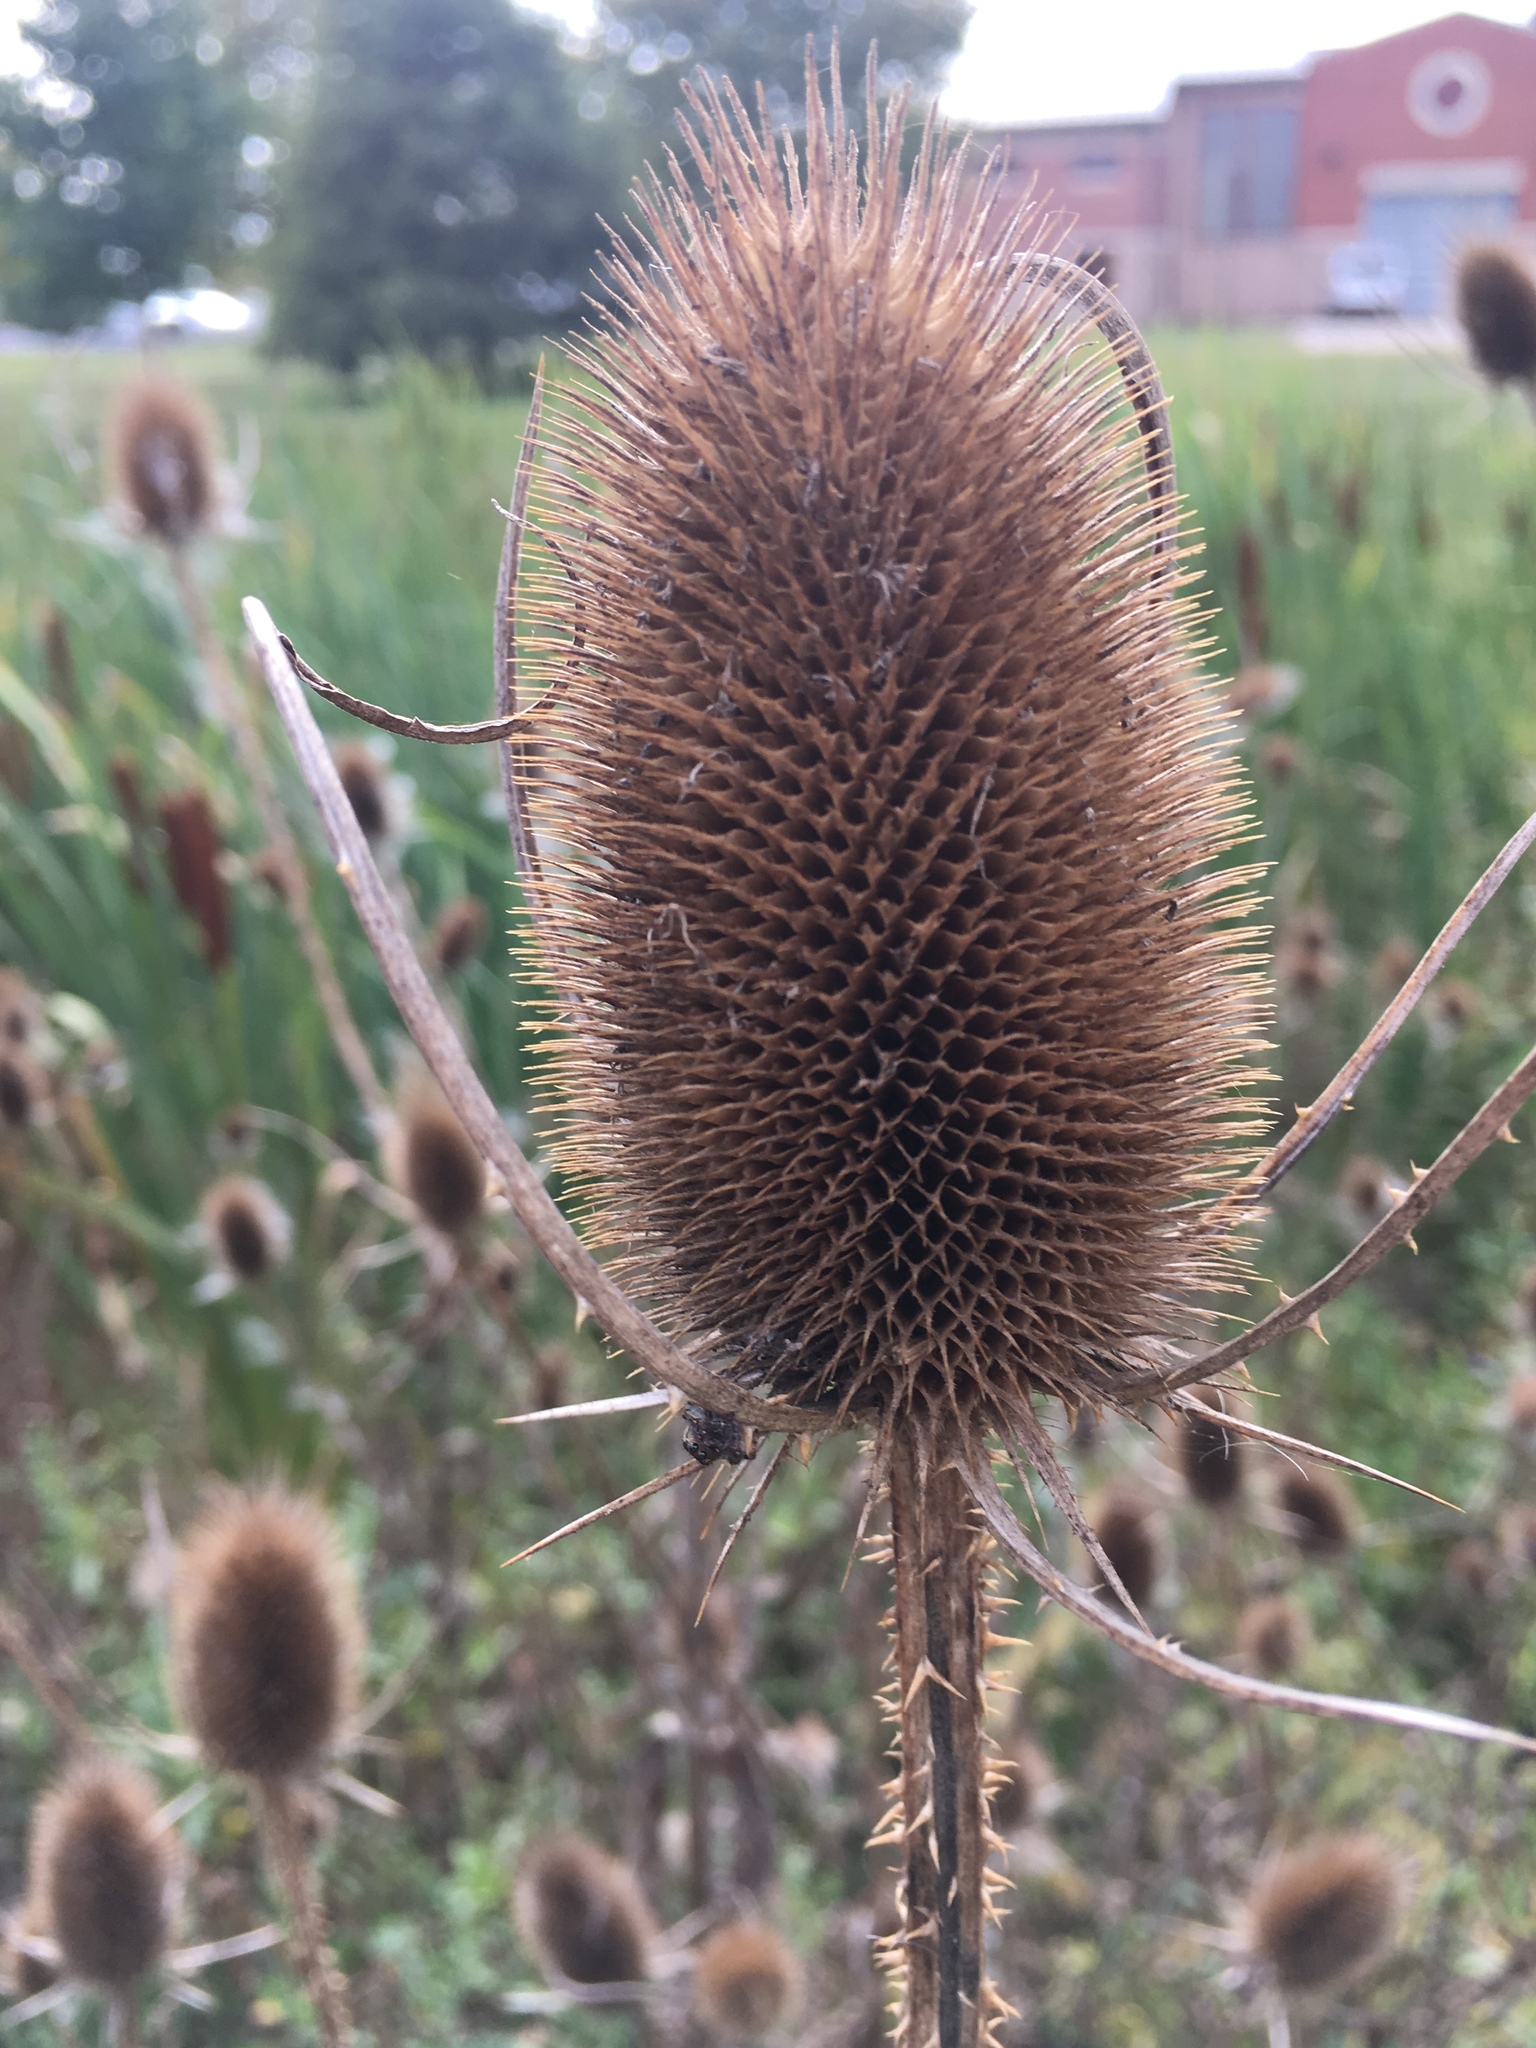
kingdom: Plantae
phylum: Tracheophyta
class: Magnoliopsida
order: Dipsacales
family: Caprifoliaceae
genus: Dipsacus
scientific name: Dipsacus fullonum
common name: Teasel
